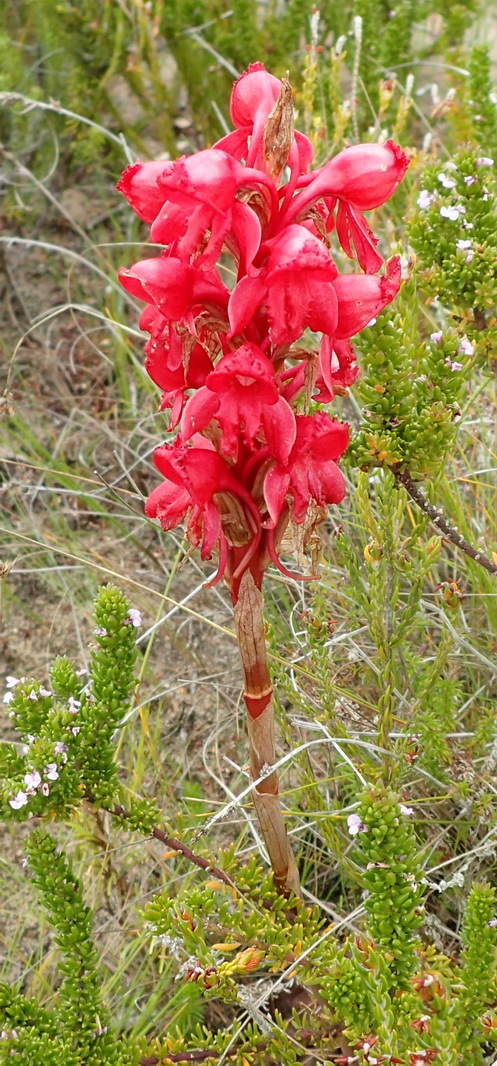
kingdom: Plantae
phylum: Tracheophyta
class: Liliopsida
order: Asparagales
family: Orchidaceae
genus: Satyrium
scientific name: Satyrium princeps
